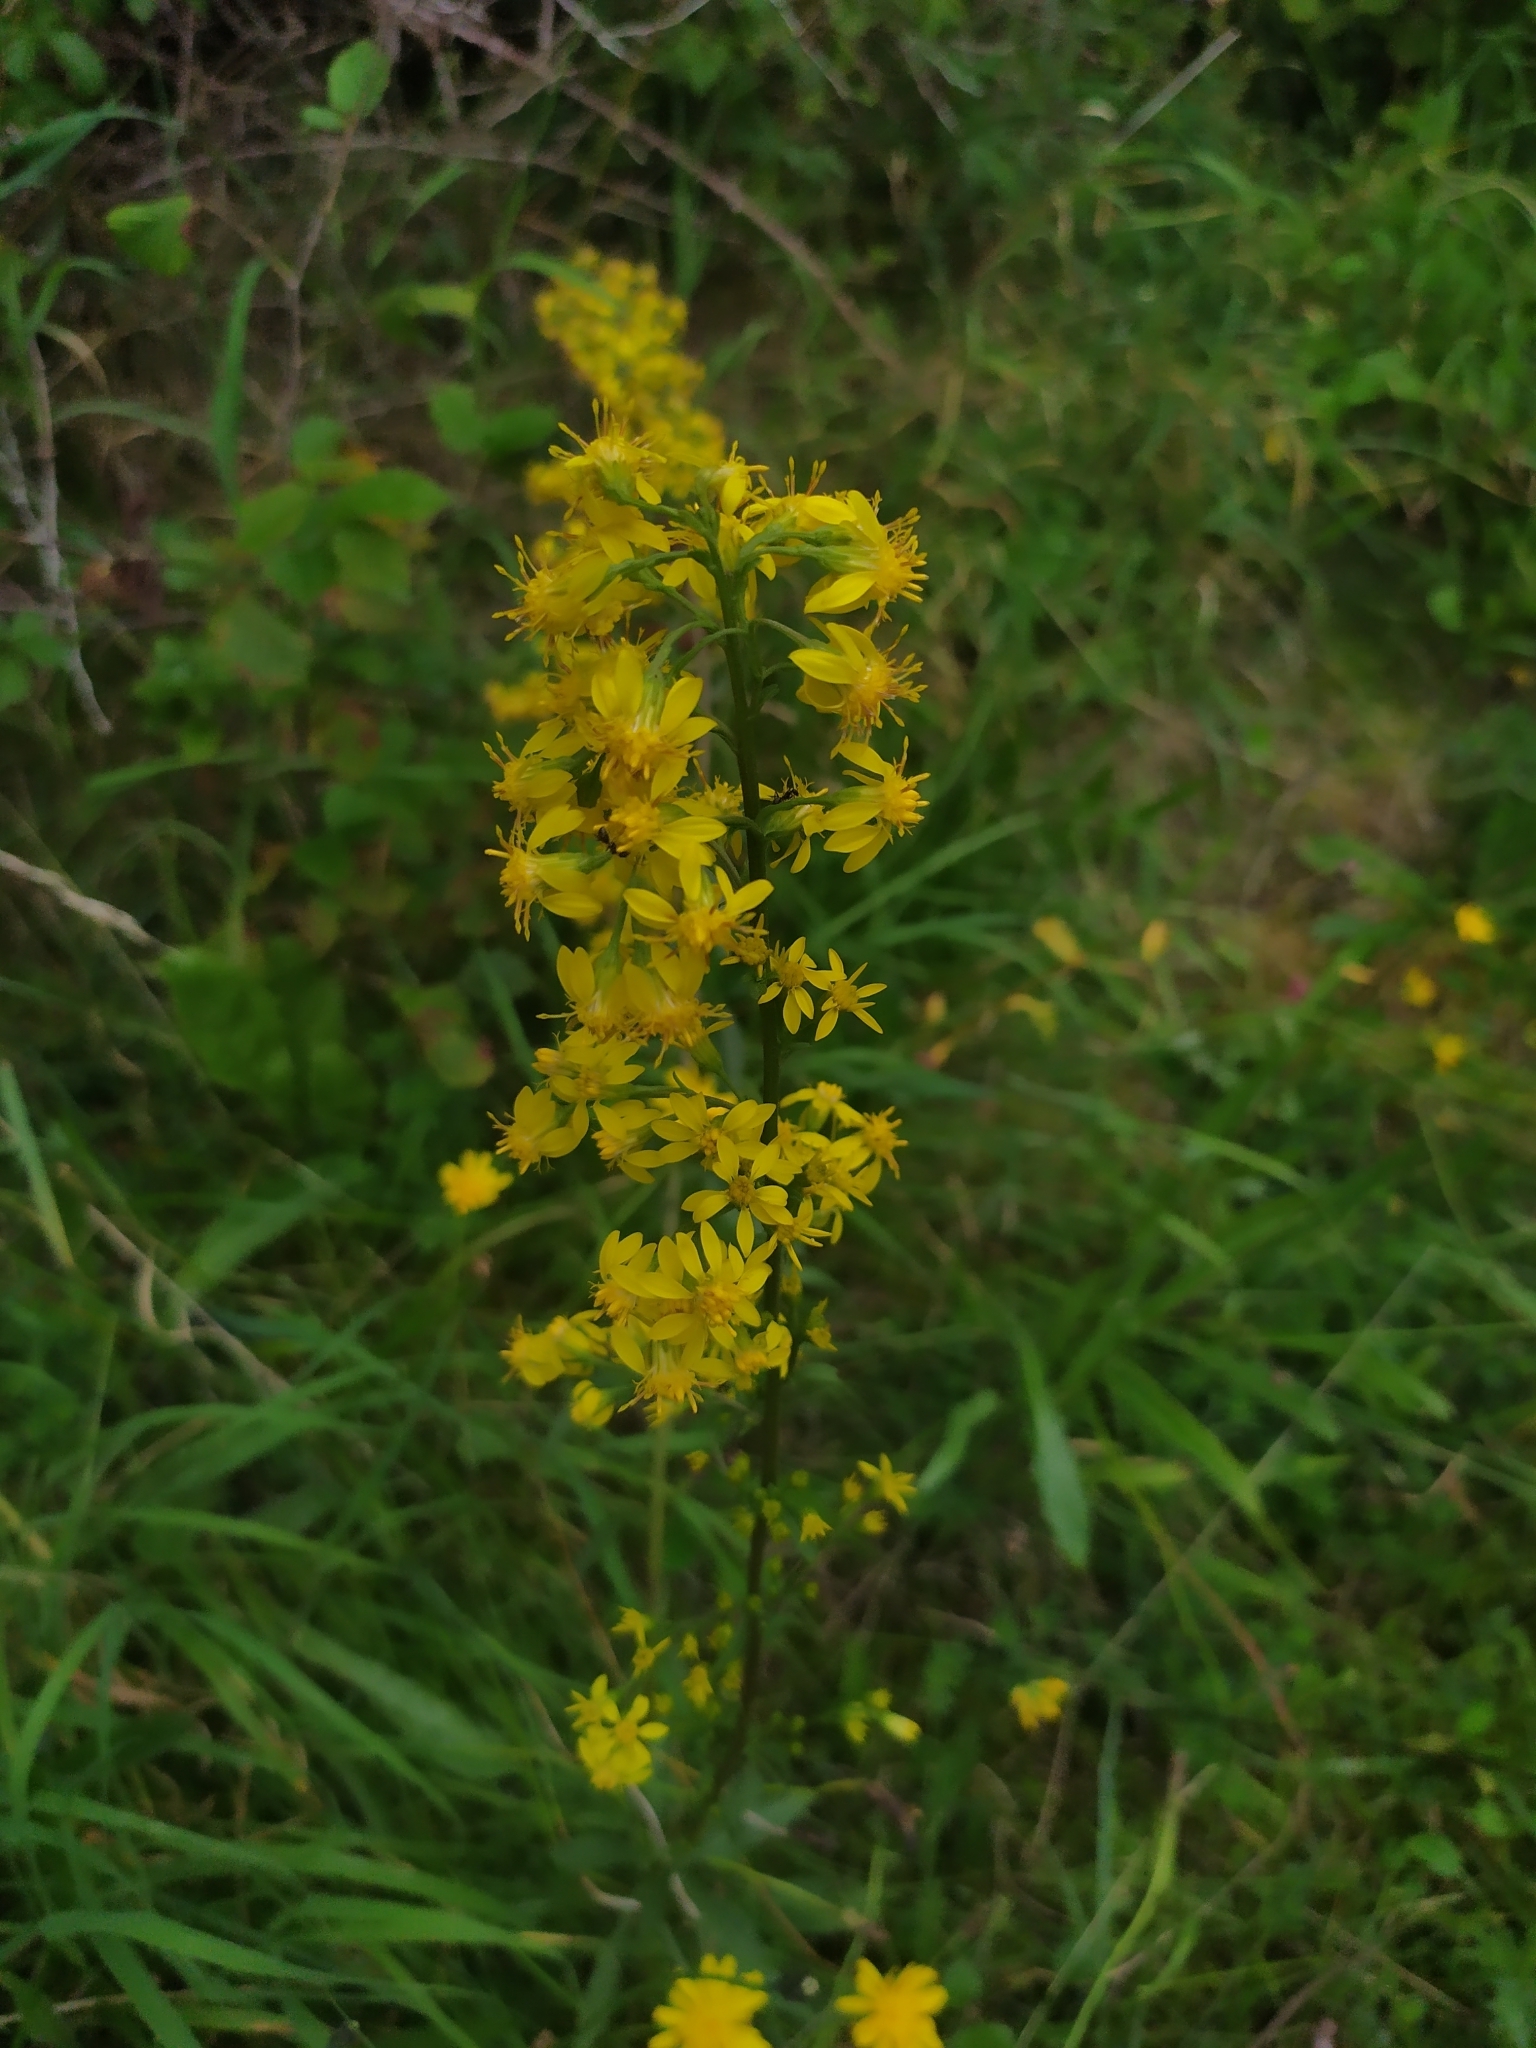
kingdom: Plantae
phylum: Tracheophyta
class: Magnoliopsida
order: Asterales
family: Asteraceae
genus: Solidago
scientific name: Solidago virgaurea
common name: Goldenrod
